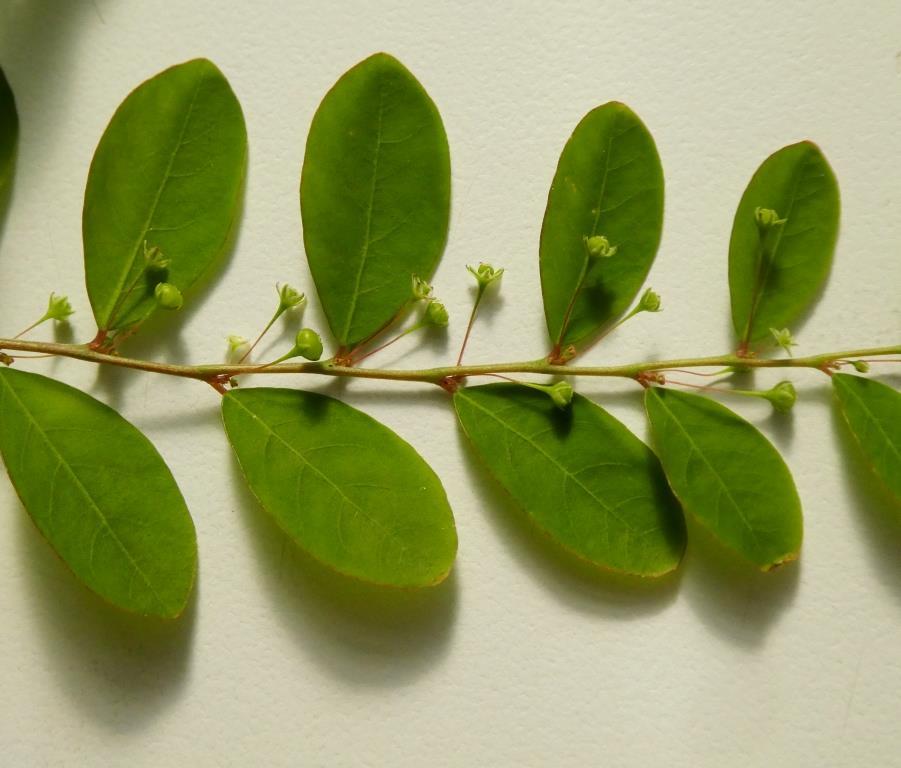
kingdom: Plantae
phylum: Tracheophyta
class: Magnoliopsida
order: Malpighiales
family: Phyllanthaceae
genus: Phyllanthus
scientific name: Phyllanthus tenellus
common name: Mascarene island leaf-flower
